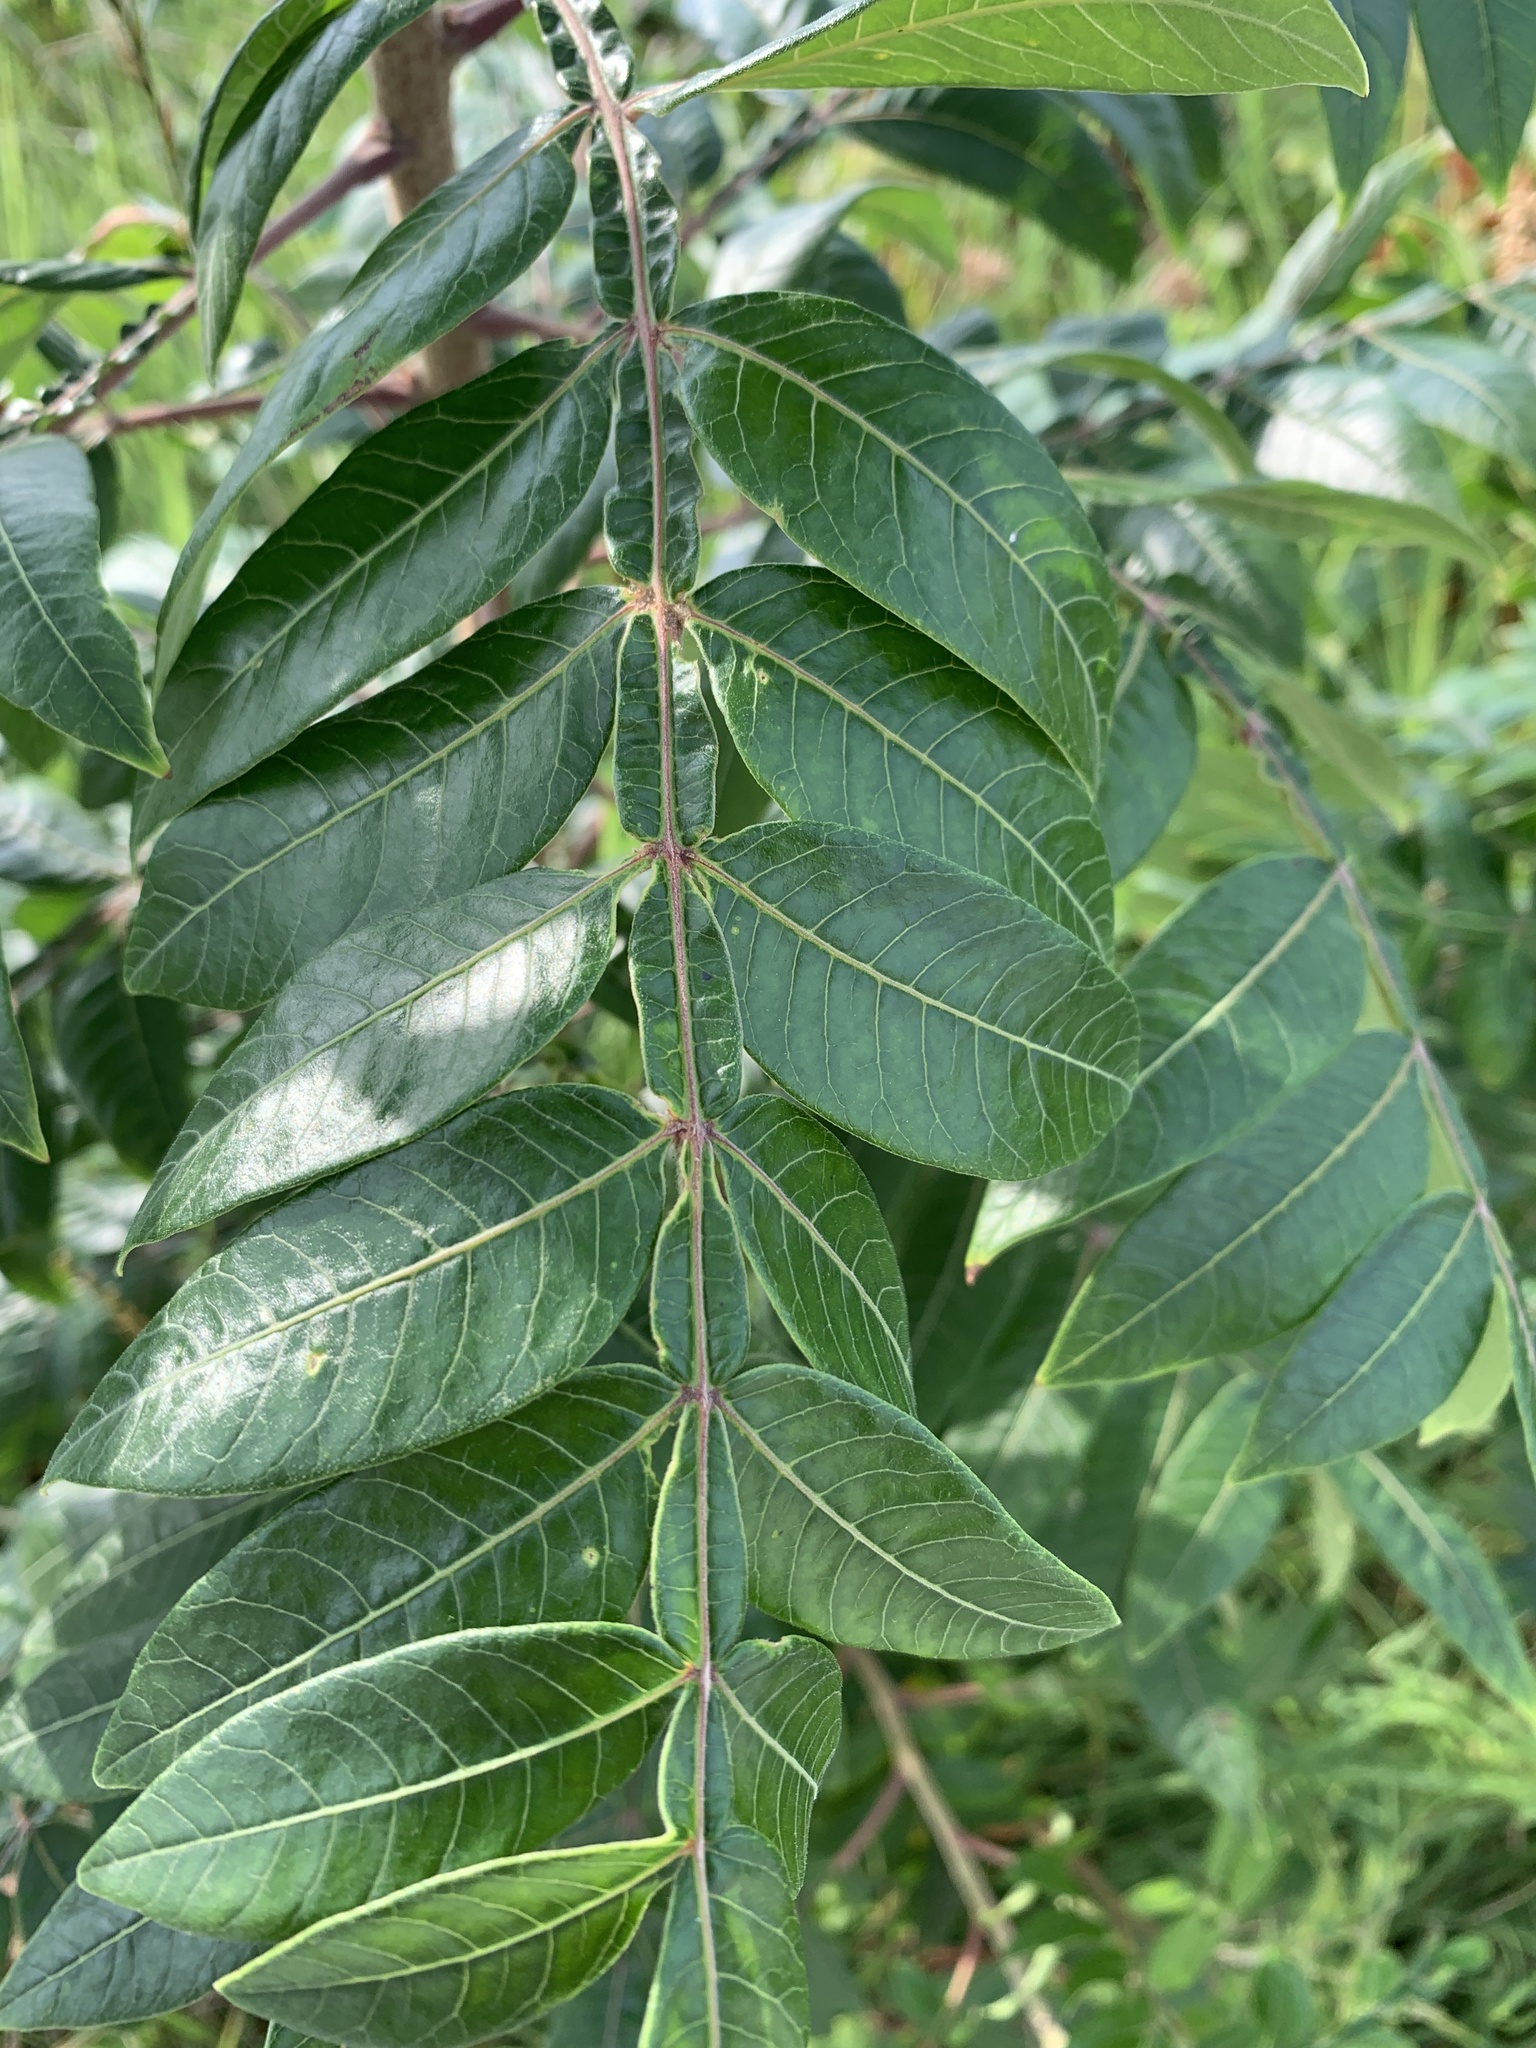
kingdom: Plantae
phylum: Tracheophyta
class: Magnoliopsida
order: Sapindales
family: Anacardiaceae
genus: Rhus
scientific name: Rhus copallina
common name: Shining sumac
